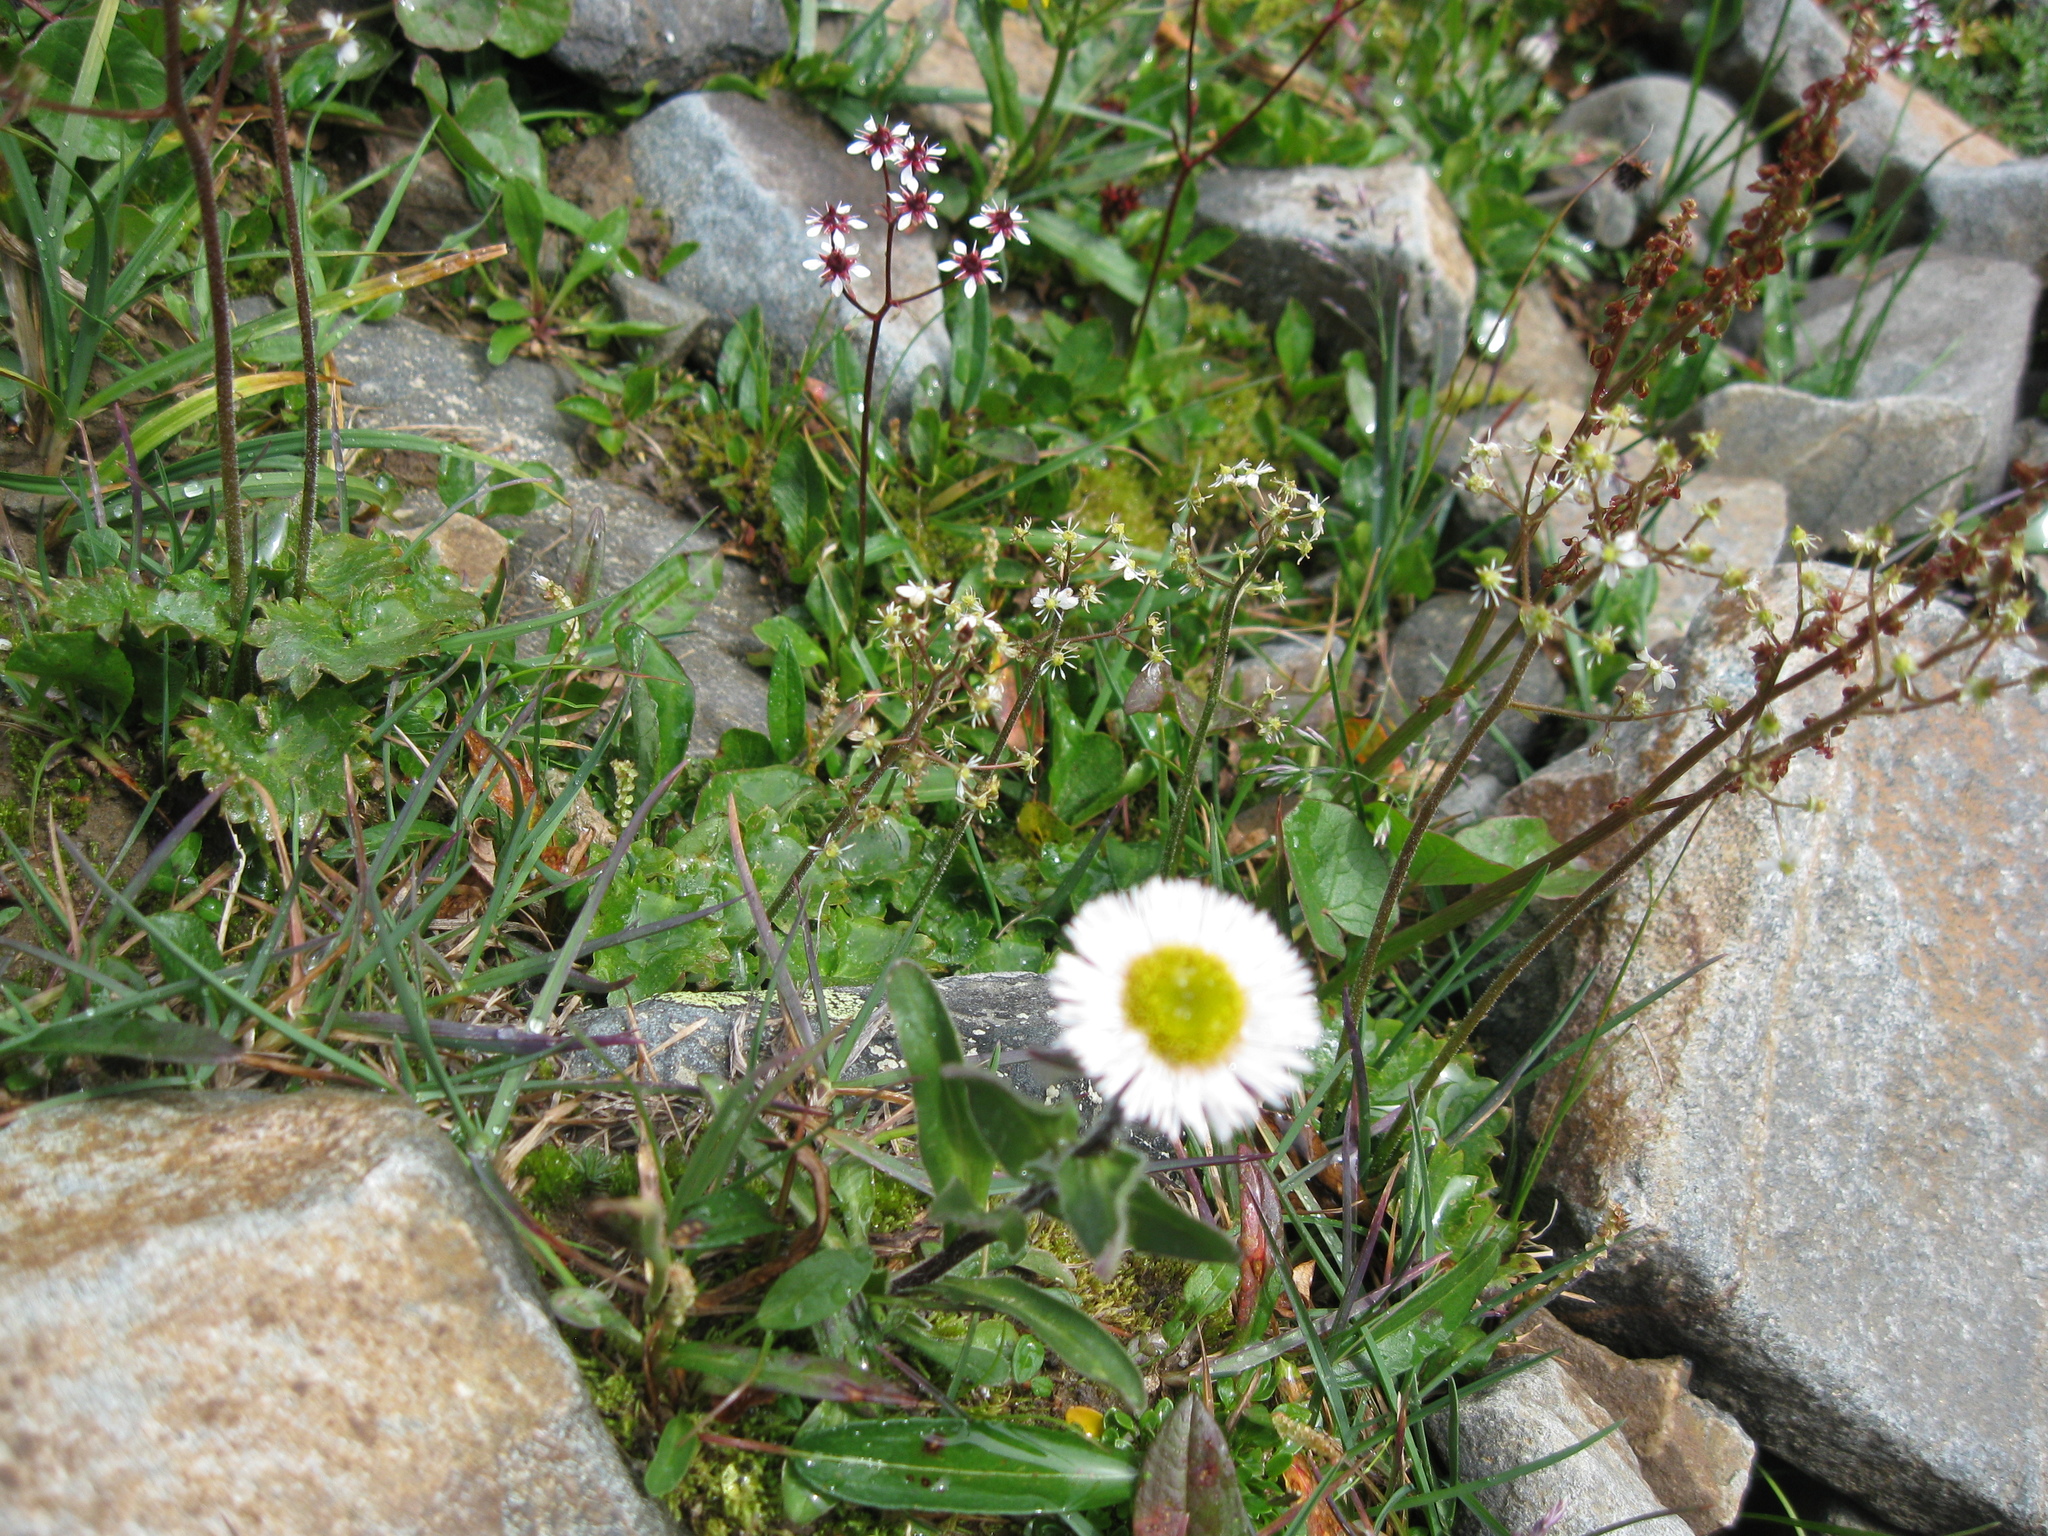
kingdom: Plantae
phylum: Tracheophyta
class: Magnoliopsida
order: Asterales
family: Asteraceae
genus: Erigeron
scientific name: Erigeron eriocalyx
